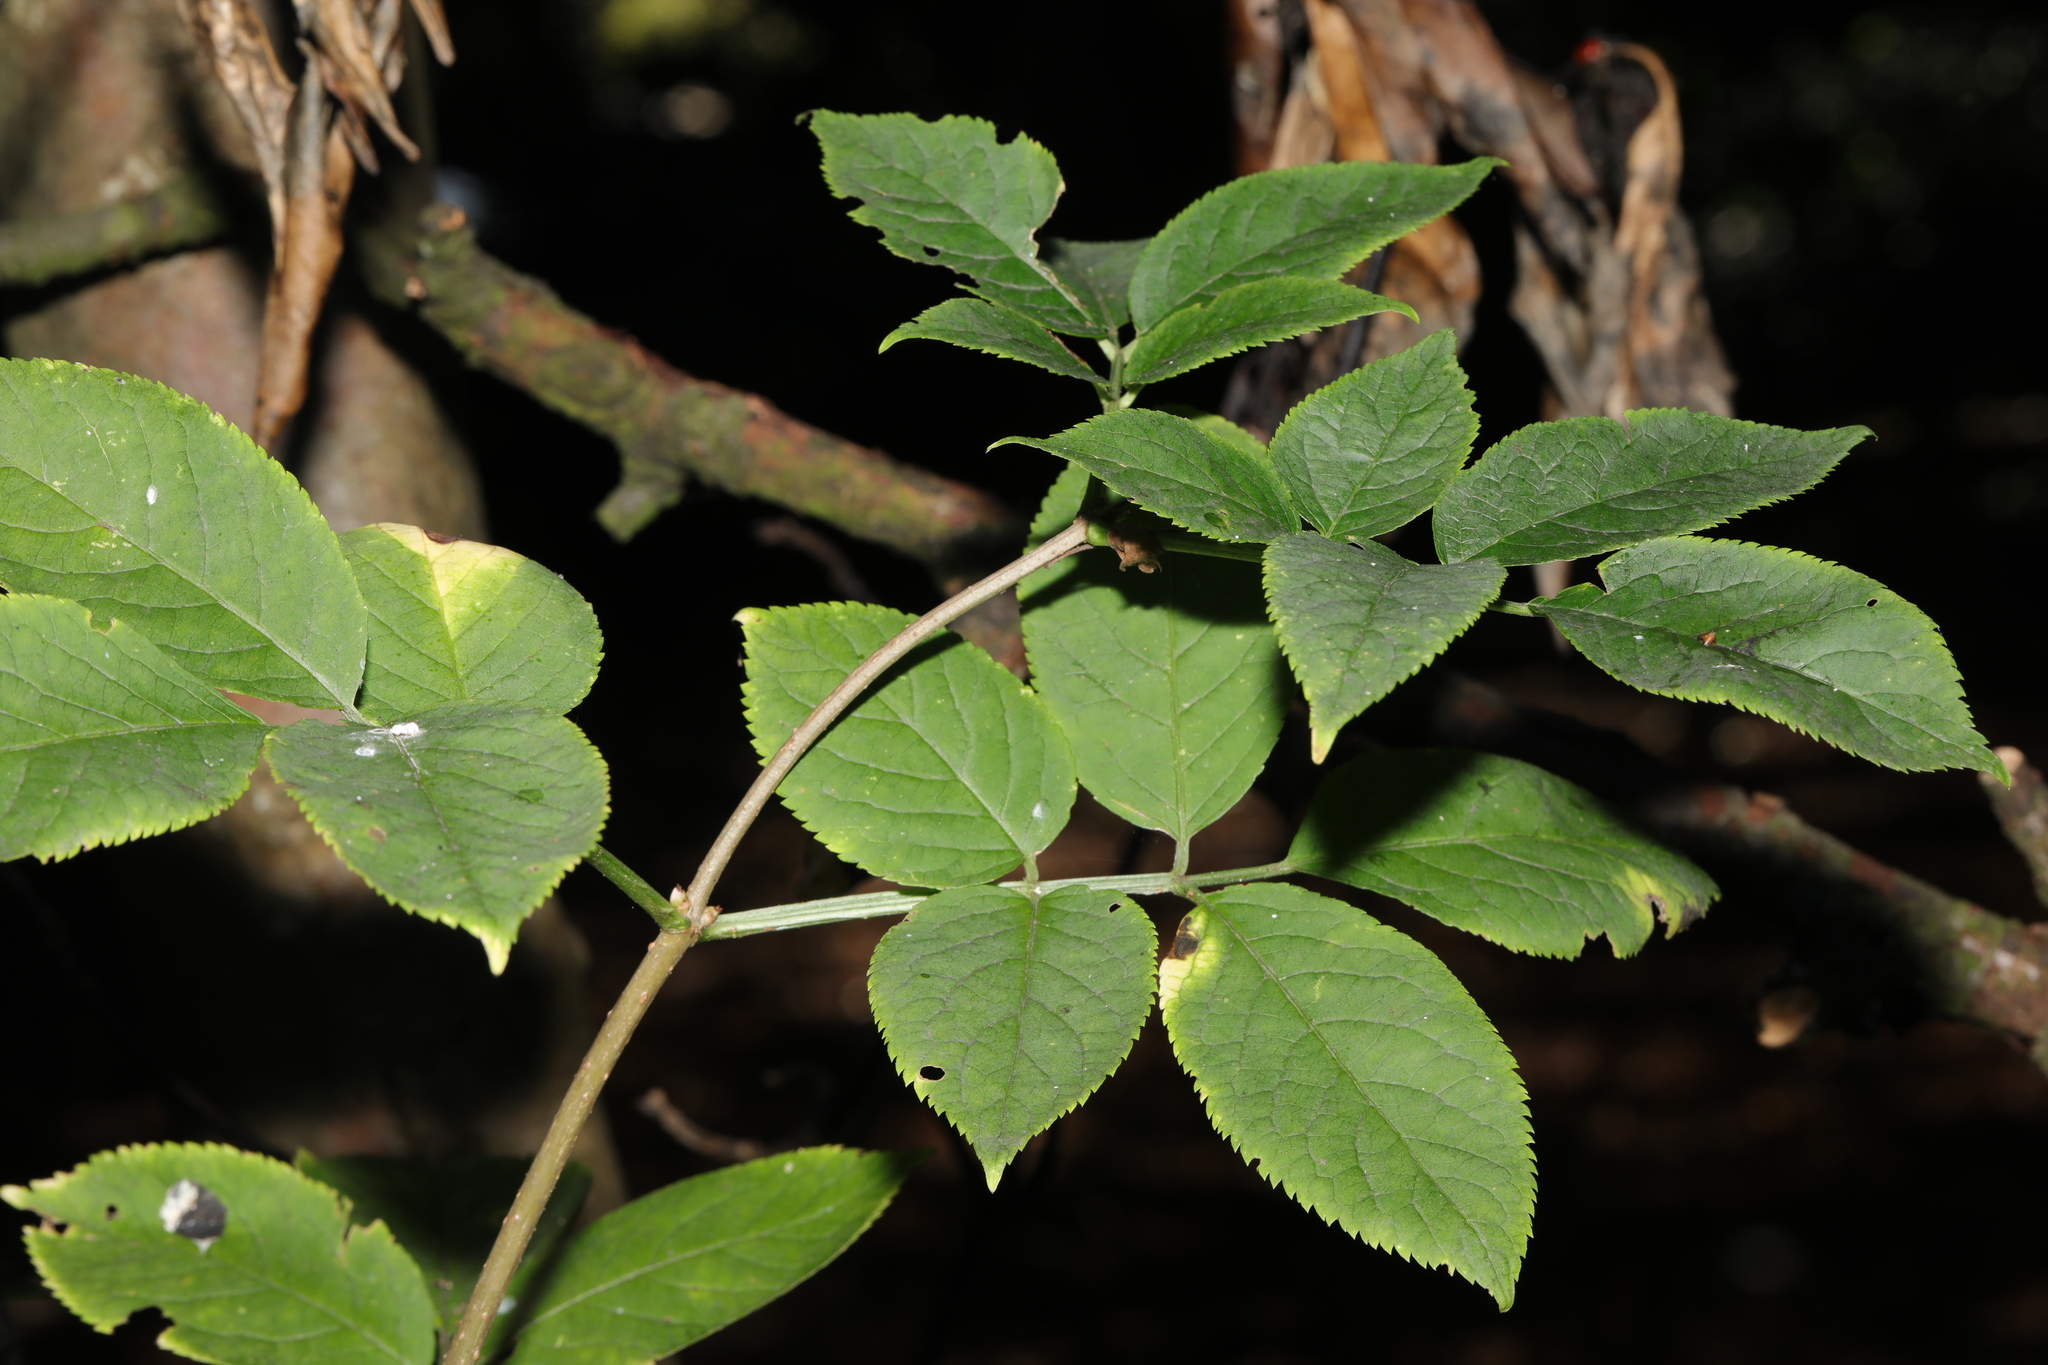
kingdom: Plantae
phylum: Tracheophyta
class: Magnoliopsida
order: Dipsacales
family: Viburnaceae
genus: Sambucus
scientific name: Sambucus nigra
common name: Elder
